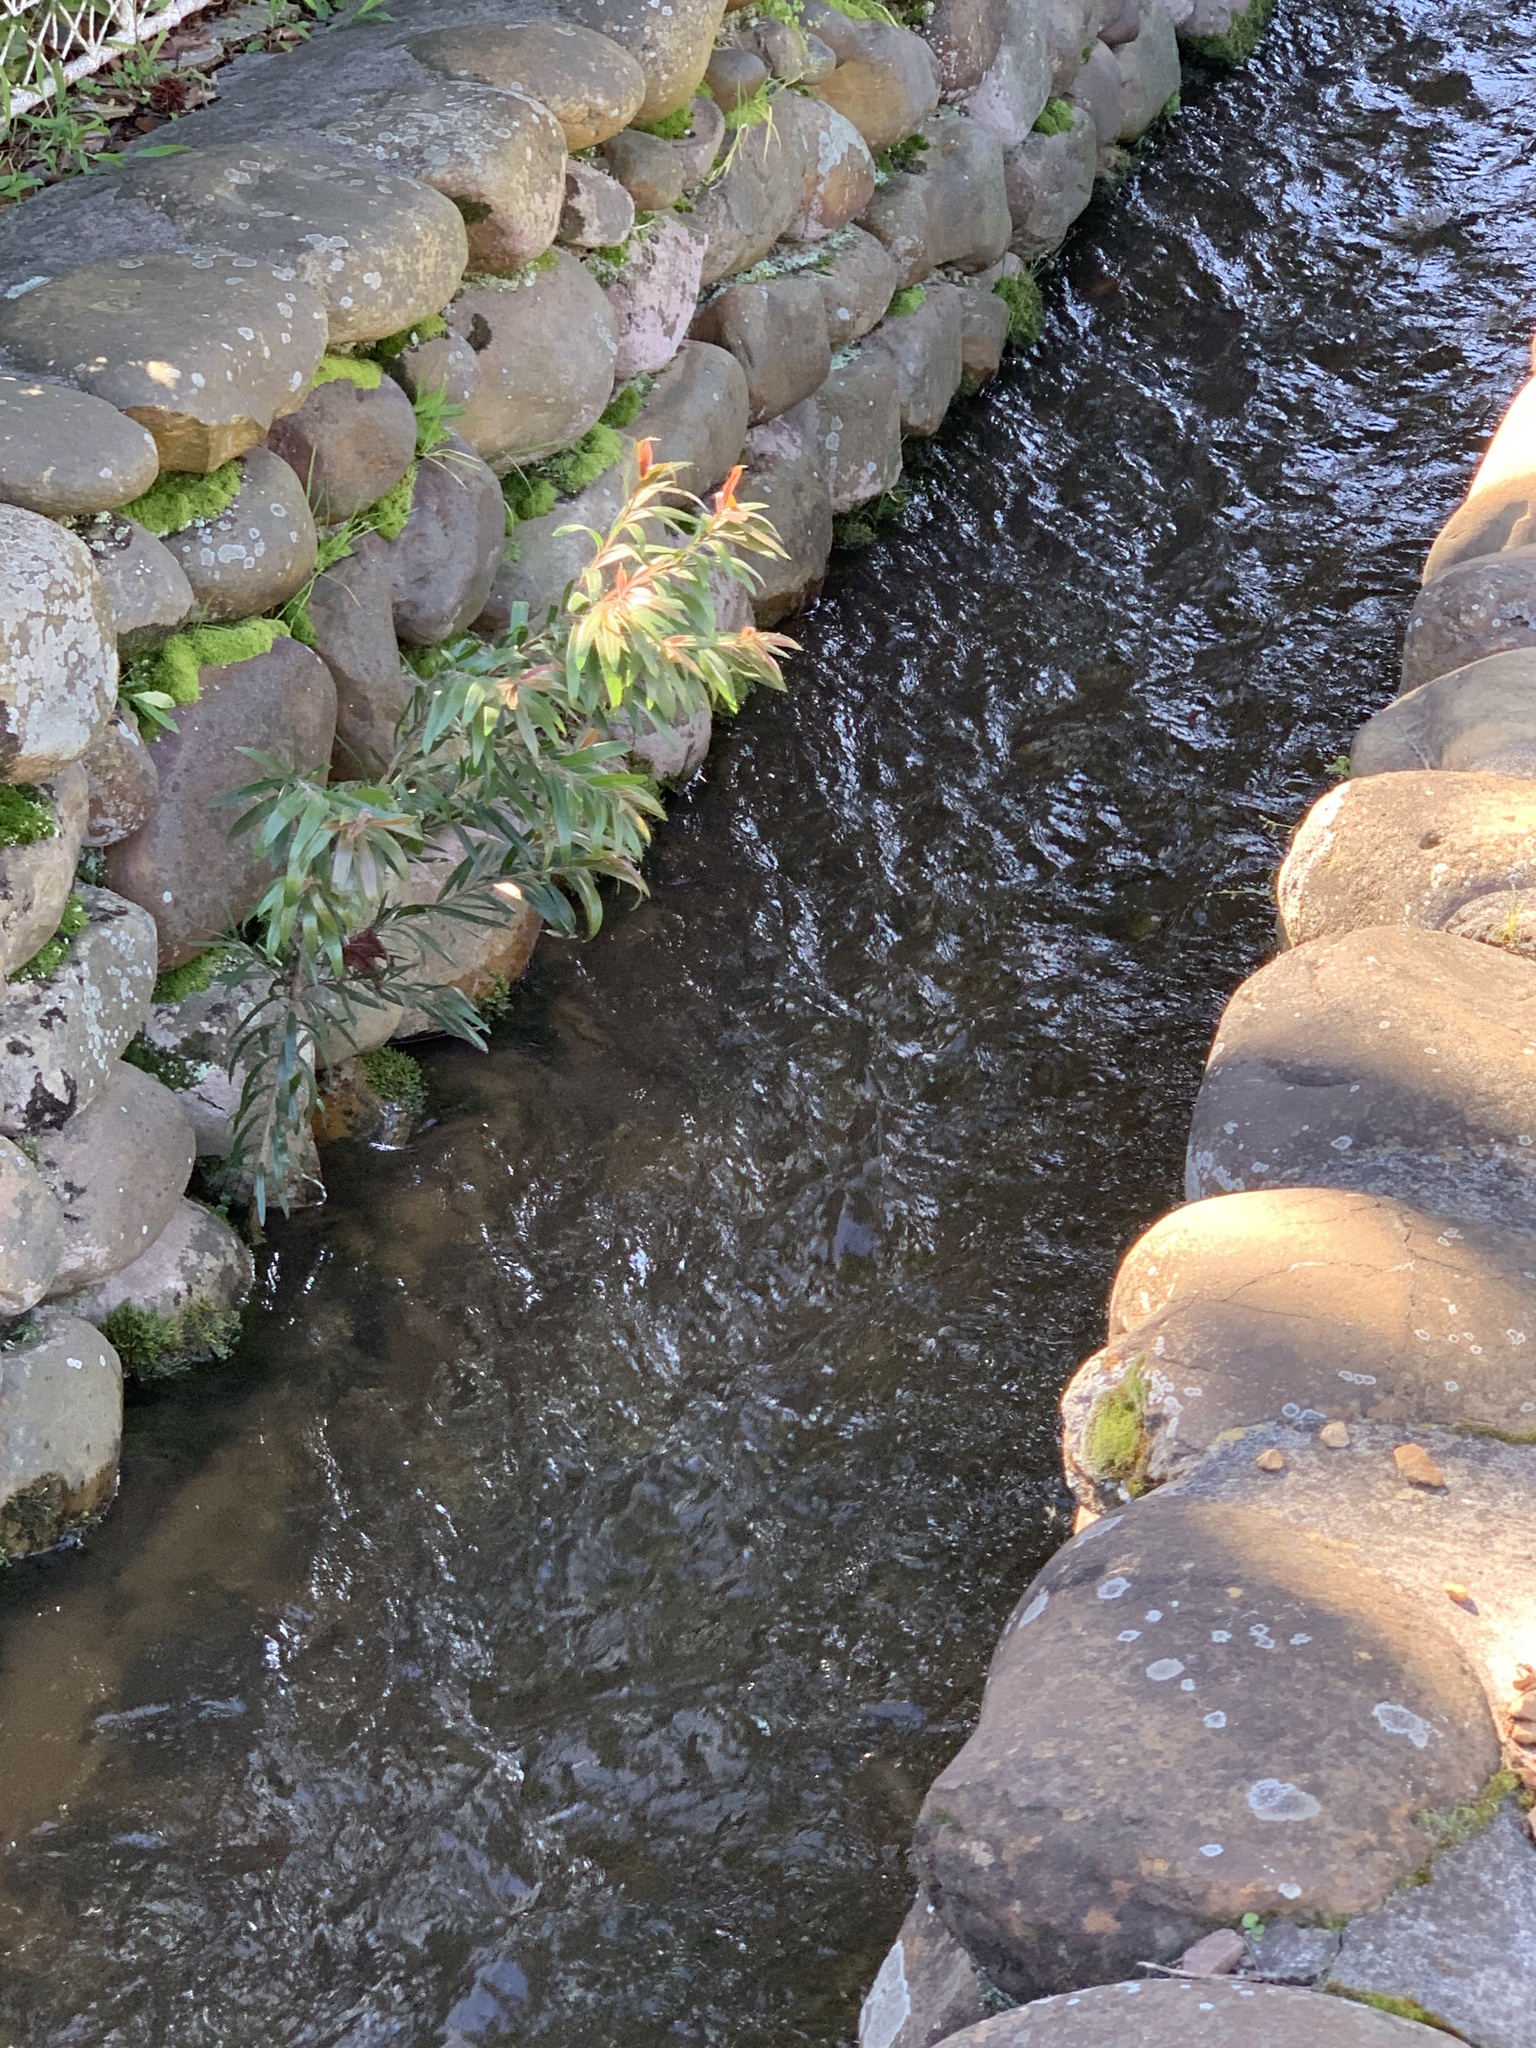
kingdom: Plantae
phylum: Tracheophyta
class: Magnoliopsida
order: Myrtales
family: Myrtaceae
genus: Callistemon
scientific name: Callistemon viminalis
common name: Drooping bottlebrush
